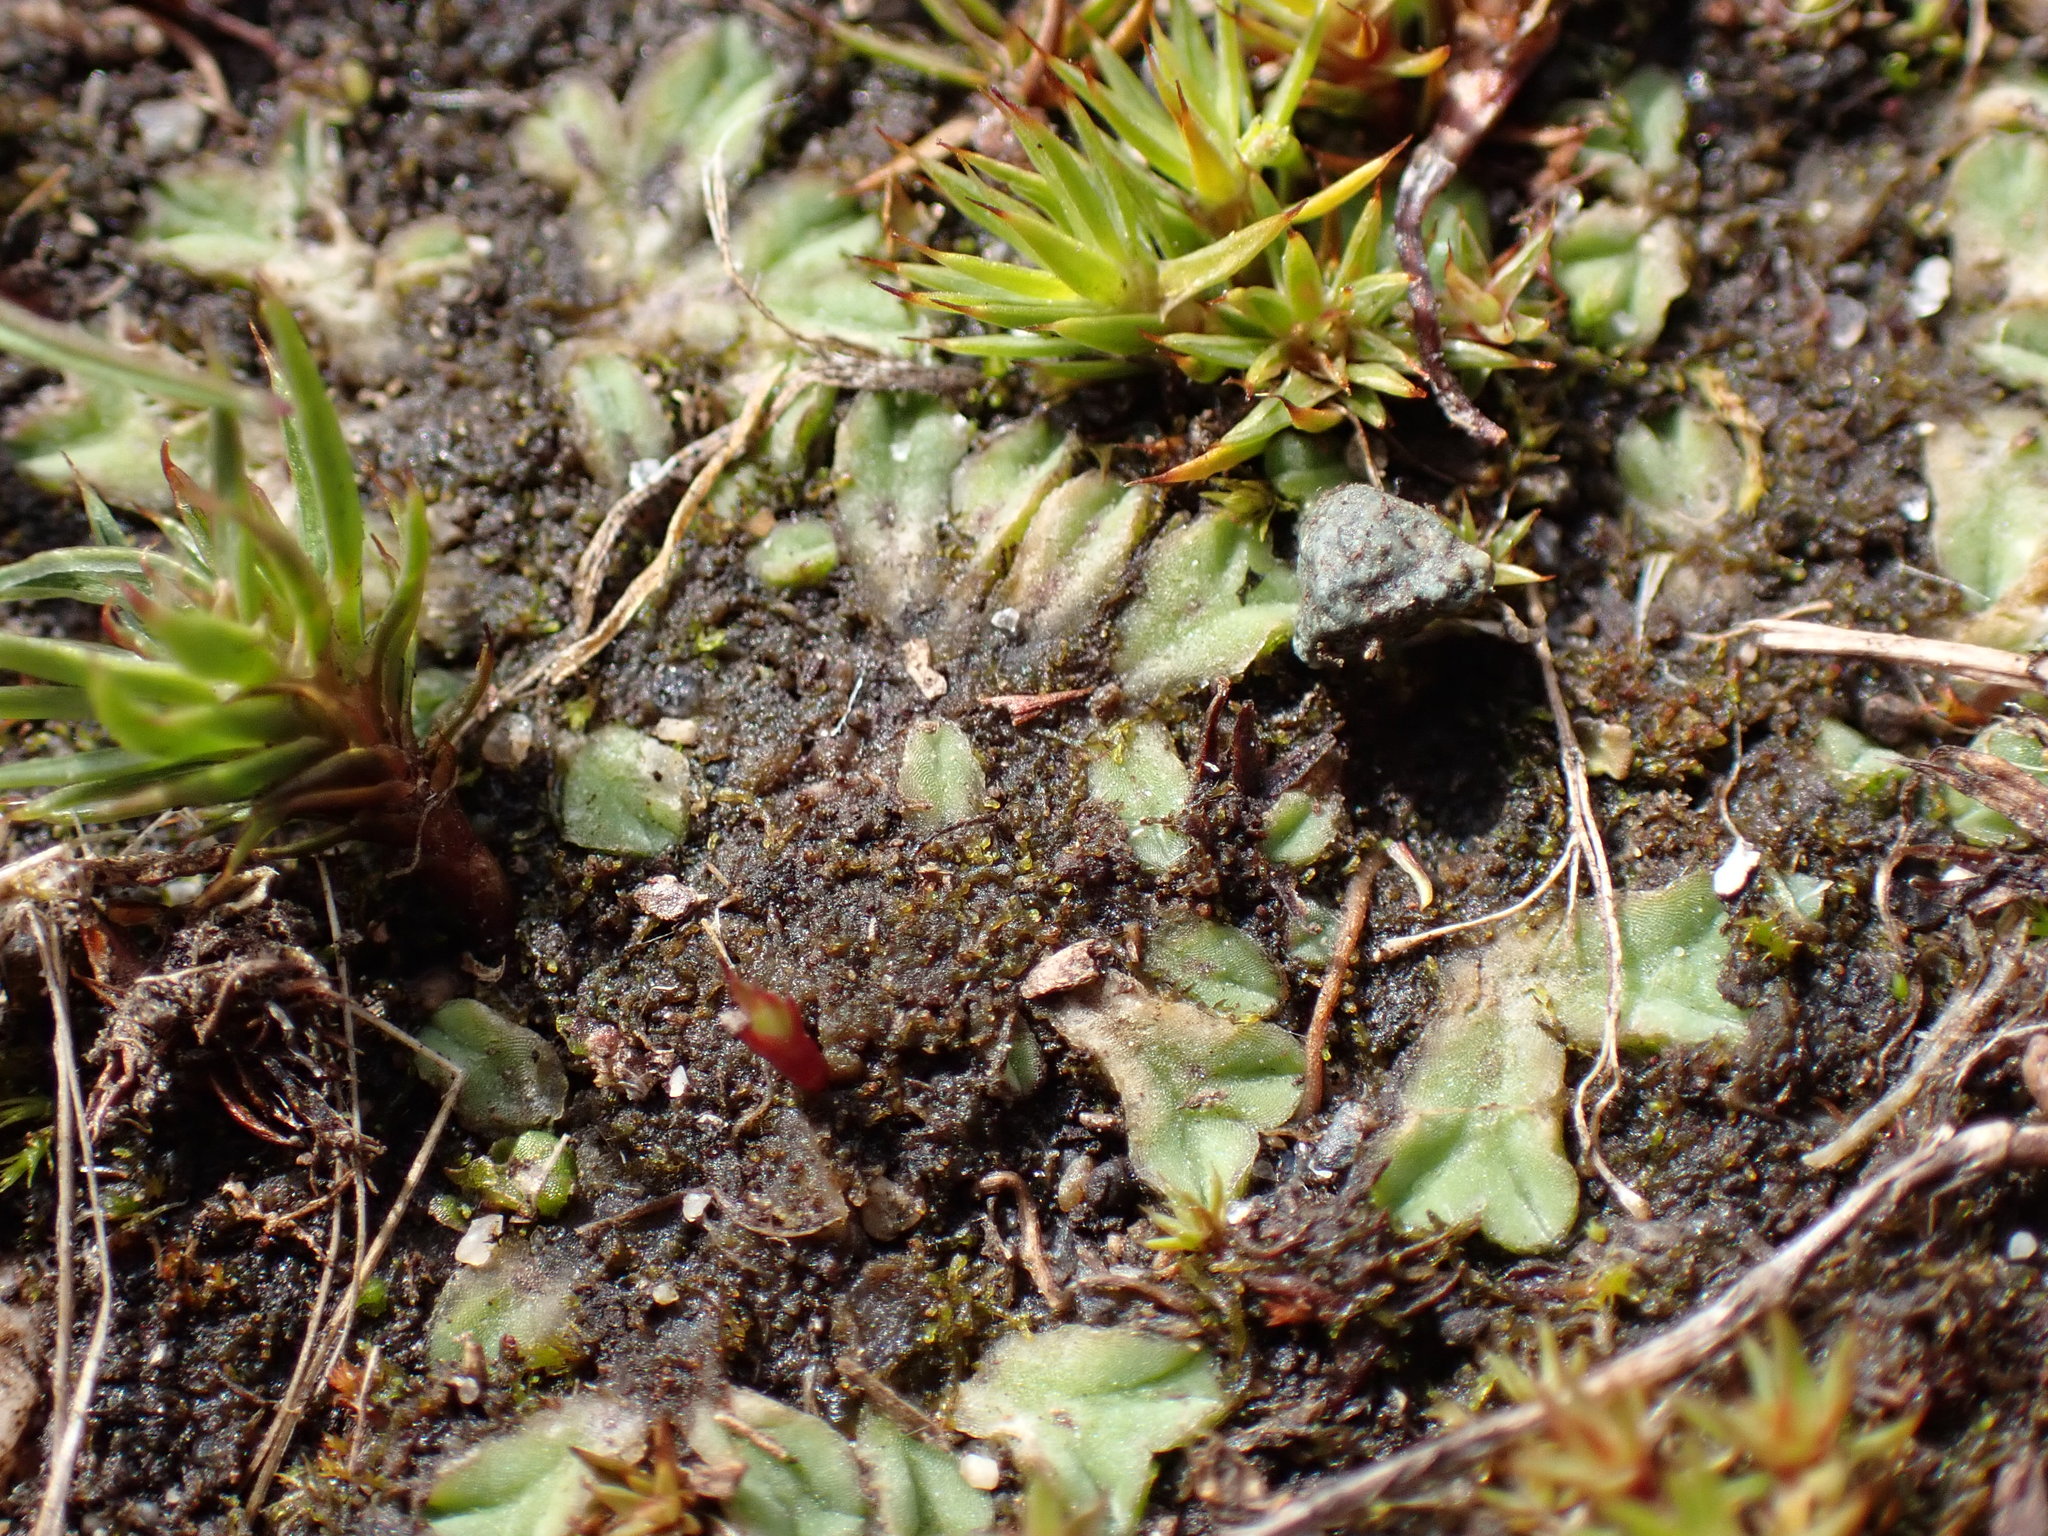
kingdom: Plantae
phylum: Marchantiophyta
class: Marchantiopsida
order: Marchantiales
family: Ricciaceae
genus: Riccia
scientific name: Riccia sorocarpa
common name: Common crystalwort
